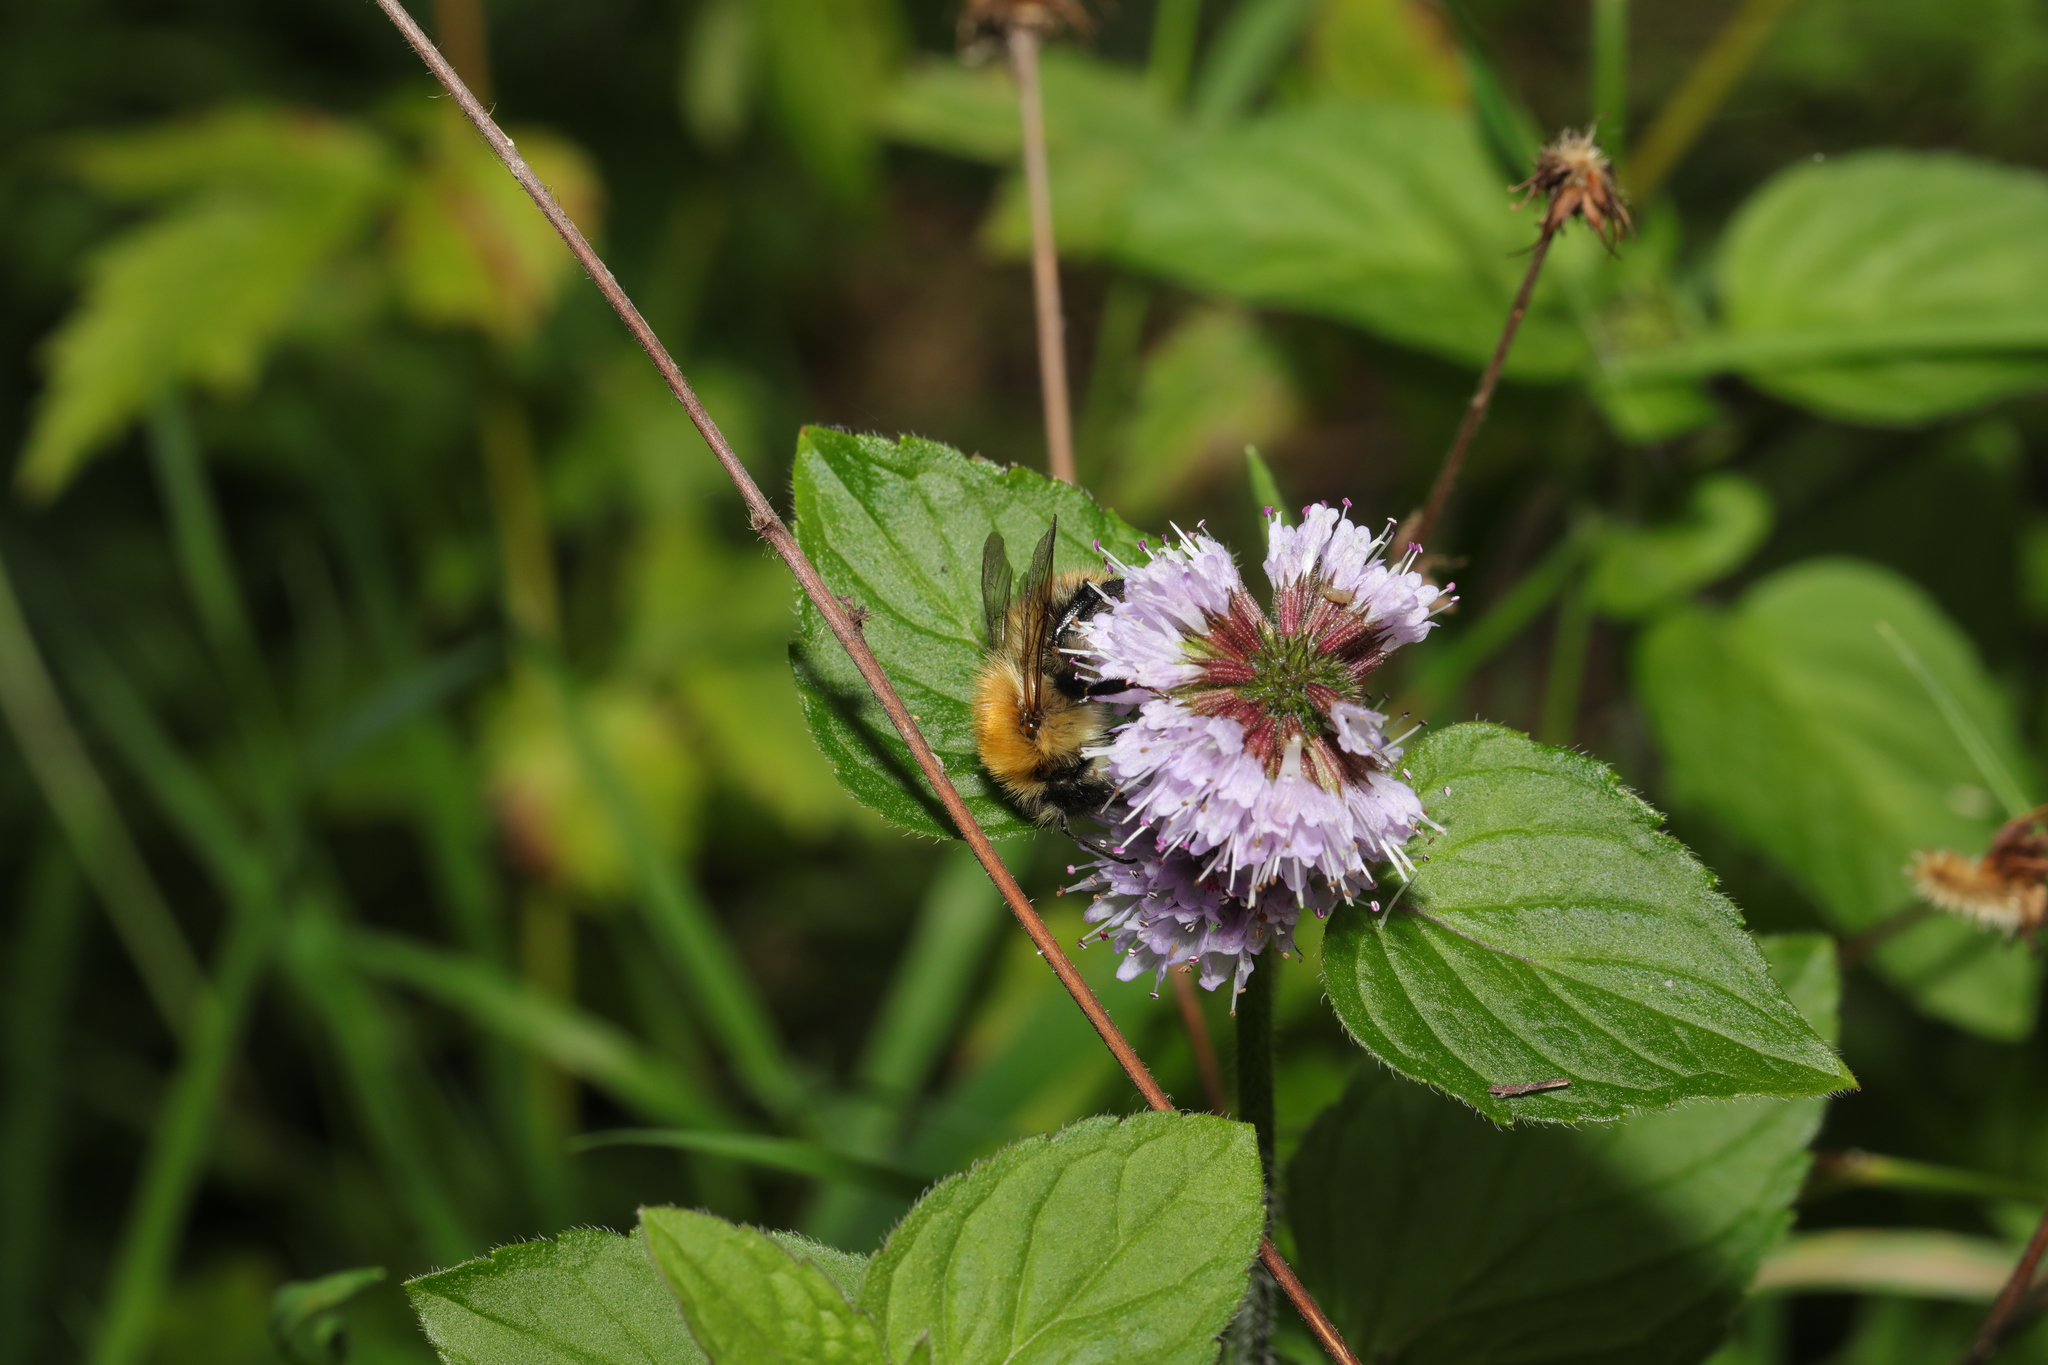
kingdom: Animalia
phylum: Arthropoda
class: Insecta
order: Hymenoptera
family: Apidae
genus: Bombus
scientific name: Bombus pascuorum
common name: Common carder bee
